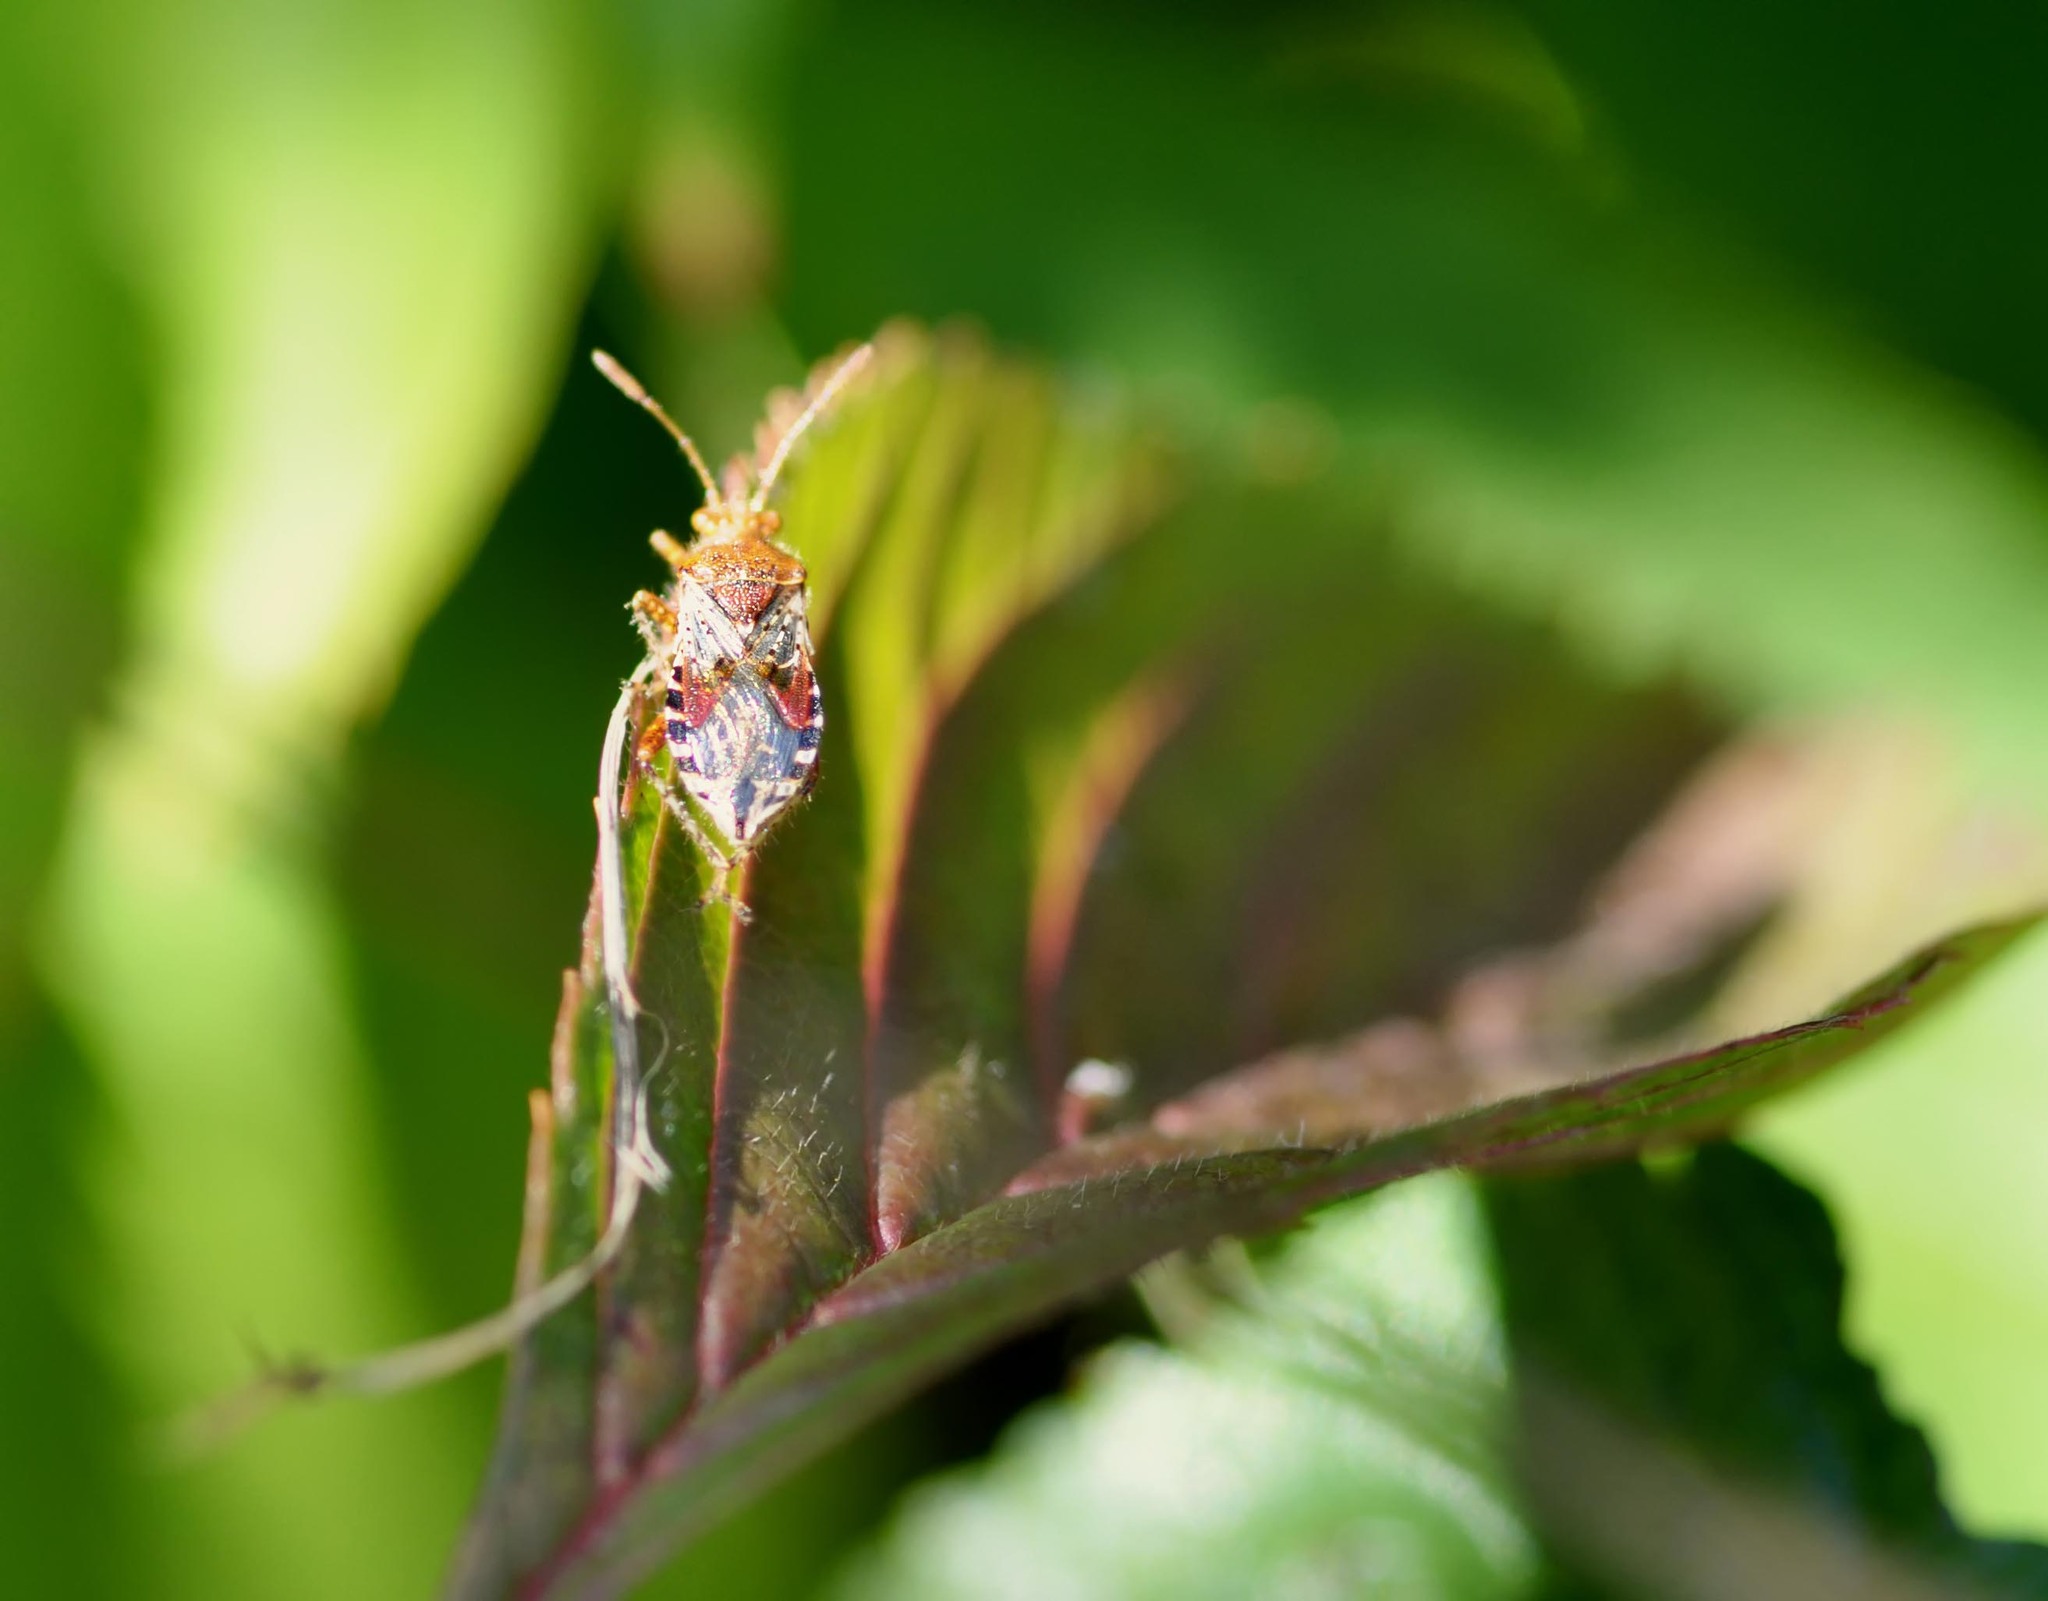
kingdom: Animalia
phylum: Arthropoda
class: Insecta
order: Hemiptera
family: Rhopalidae
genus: Rhopalus
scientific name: Rhopalus subrufus
